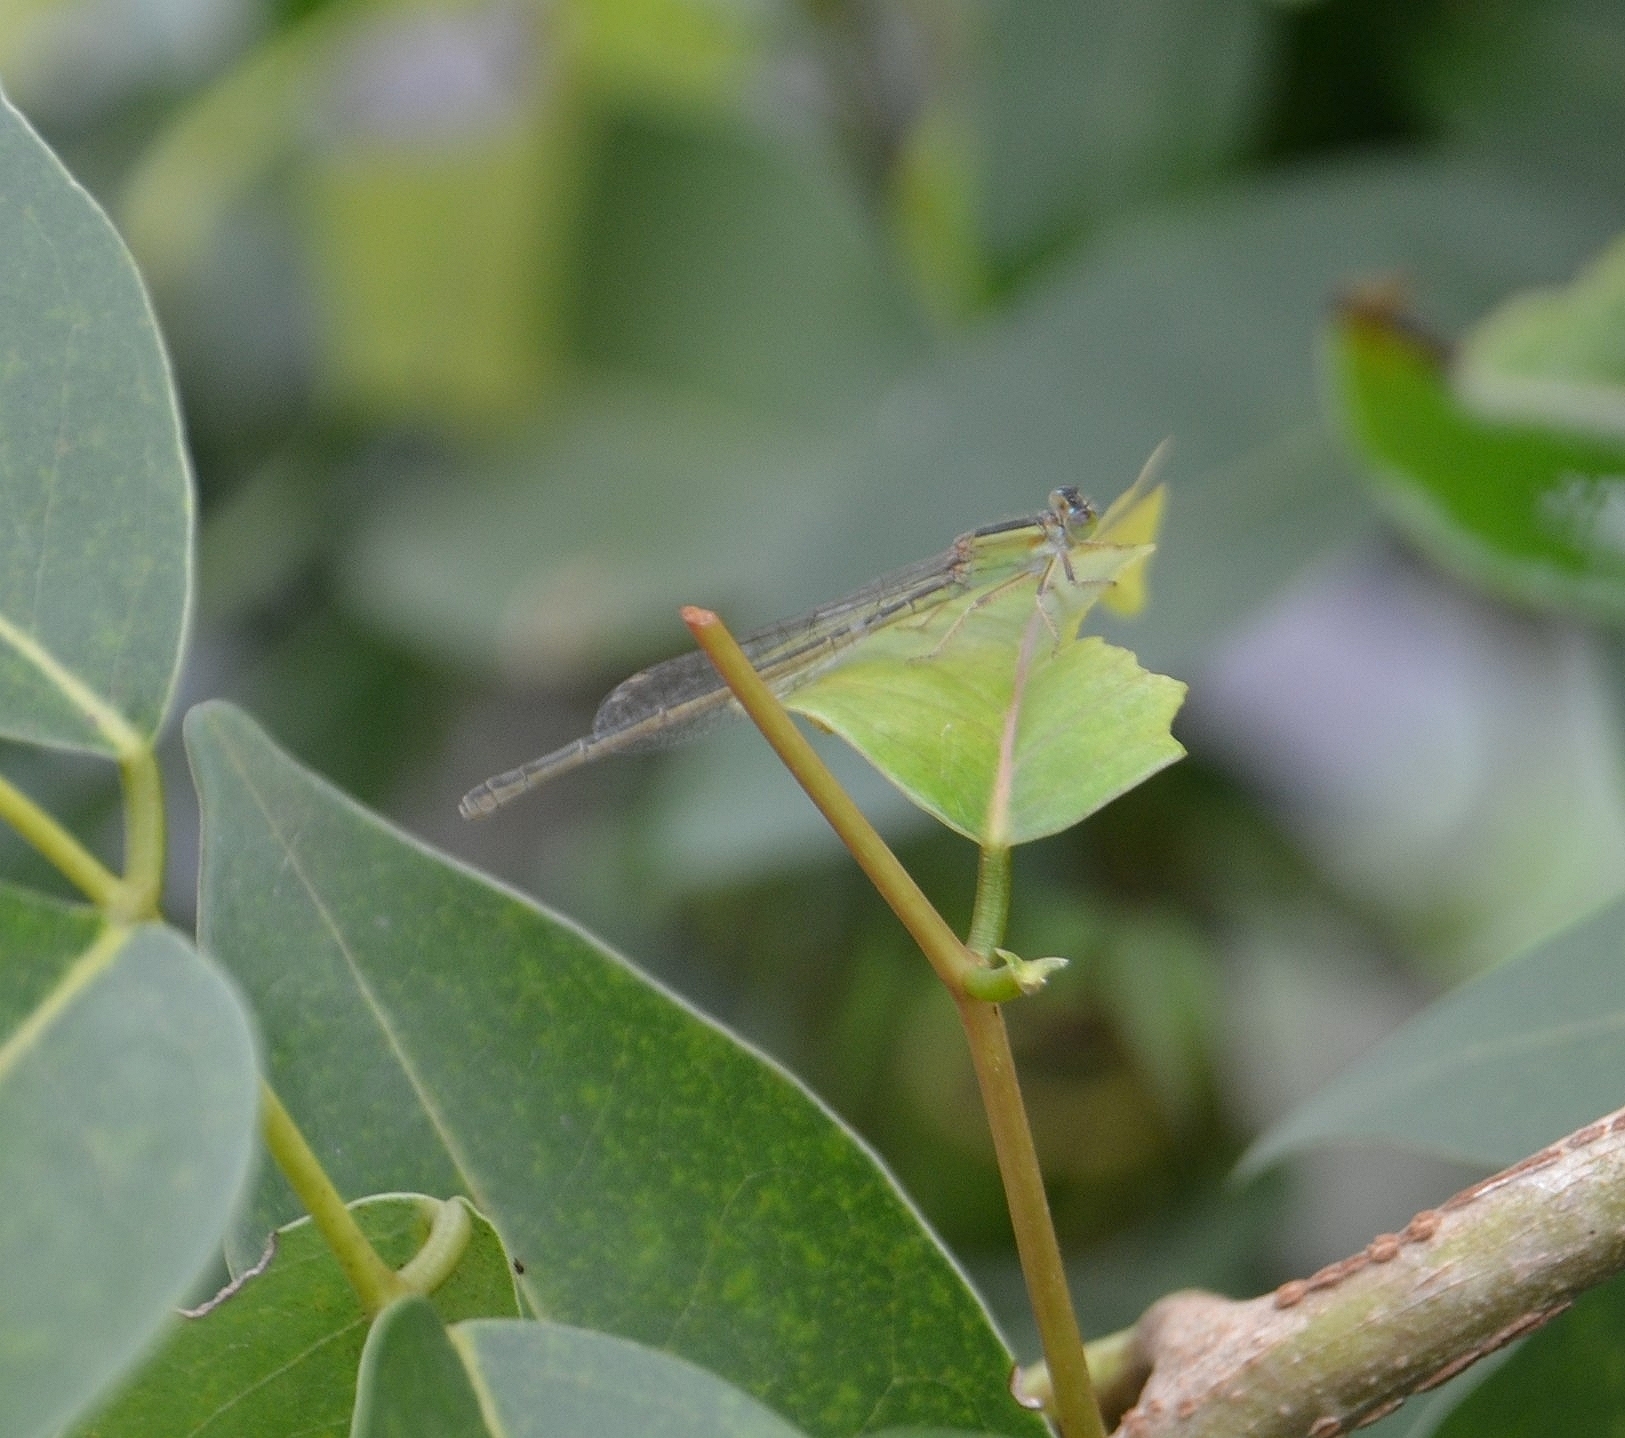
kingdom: Animalia
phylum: Arthropoda
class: Insecta
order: Odonata
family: Coenagrionidae
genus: Ischnura
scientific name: Ischnura senegalensis
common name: Tropical bluetail
